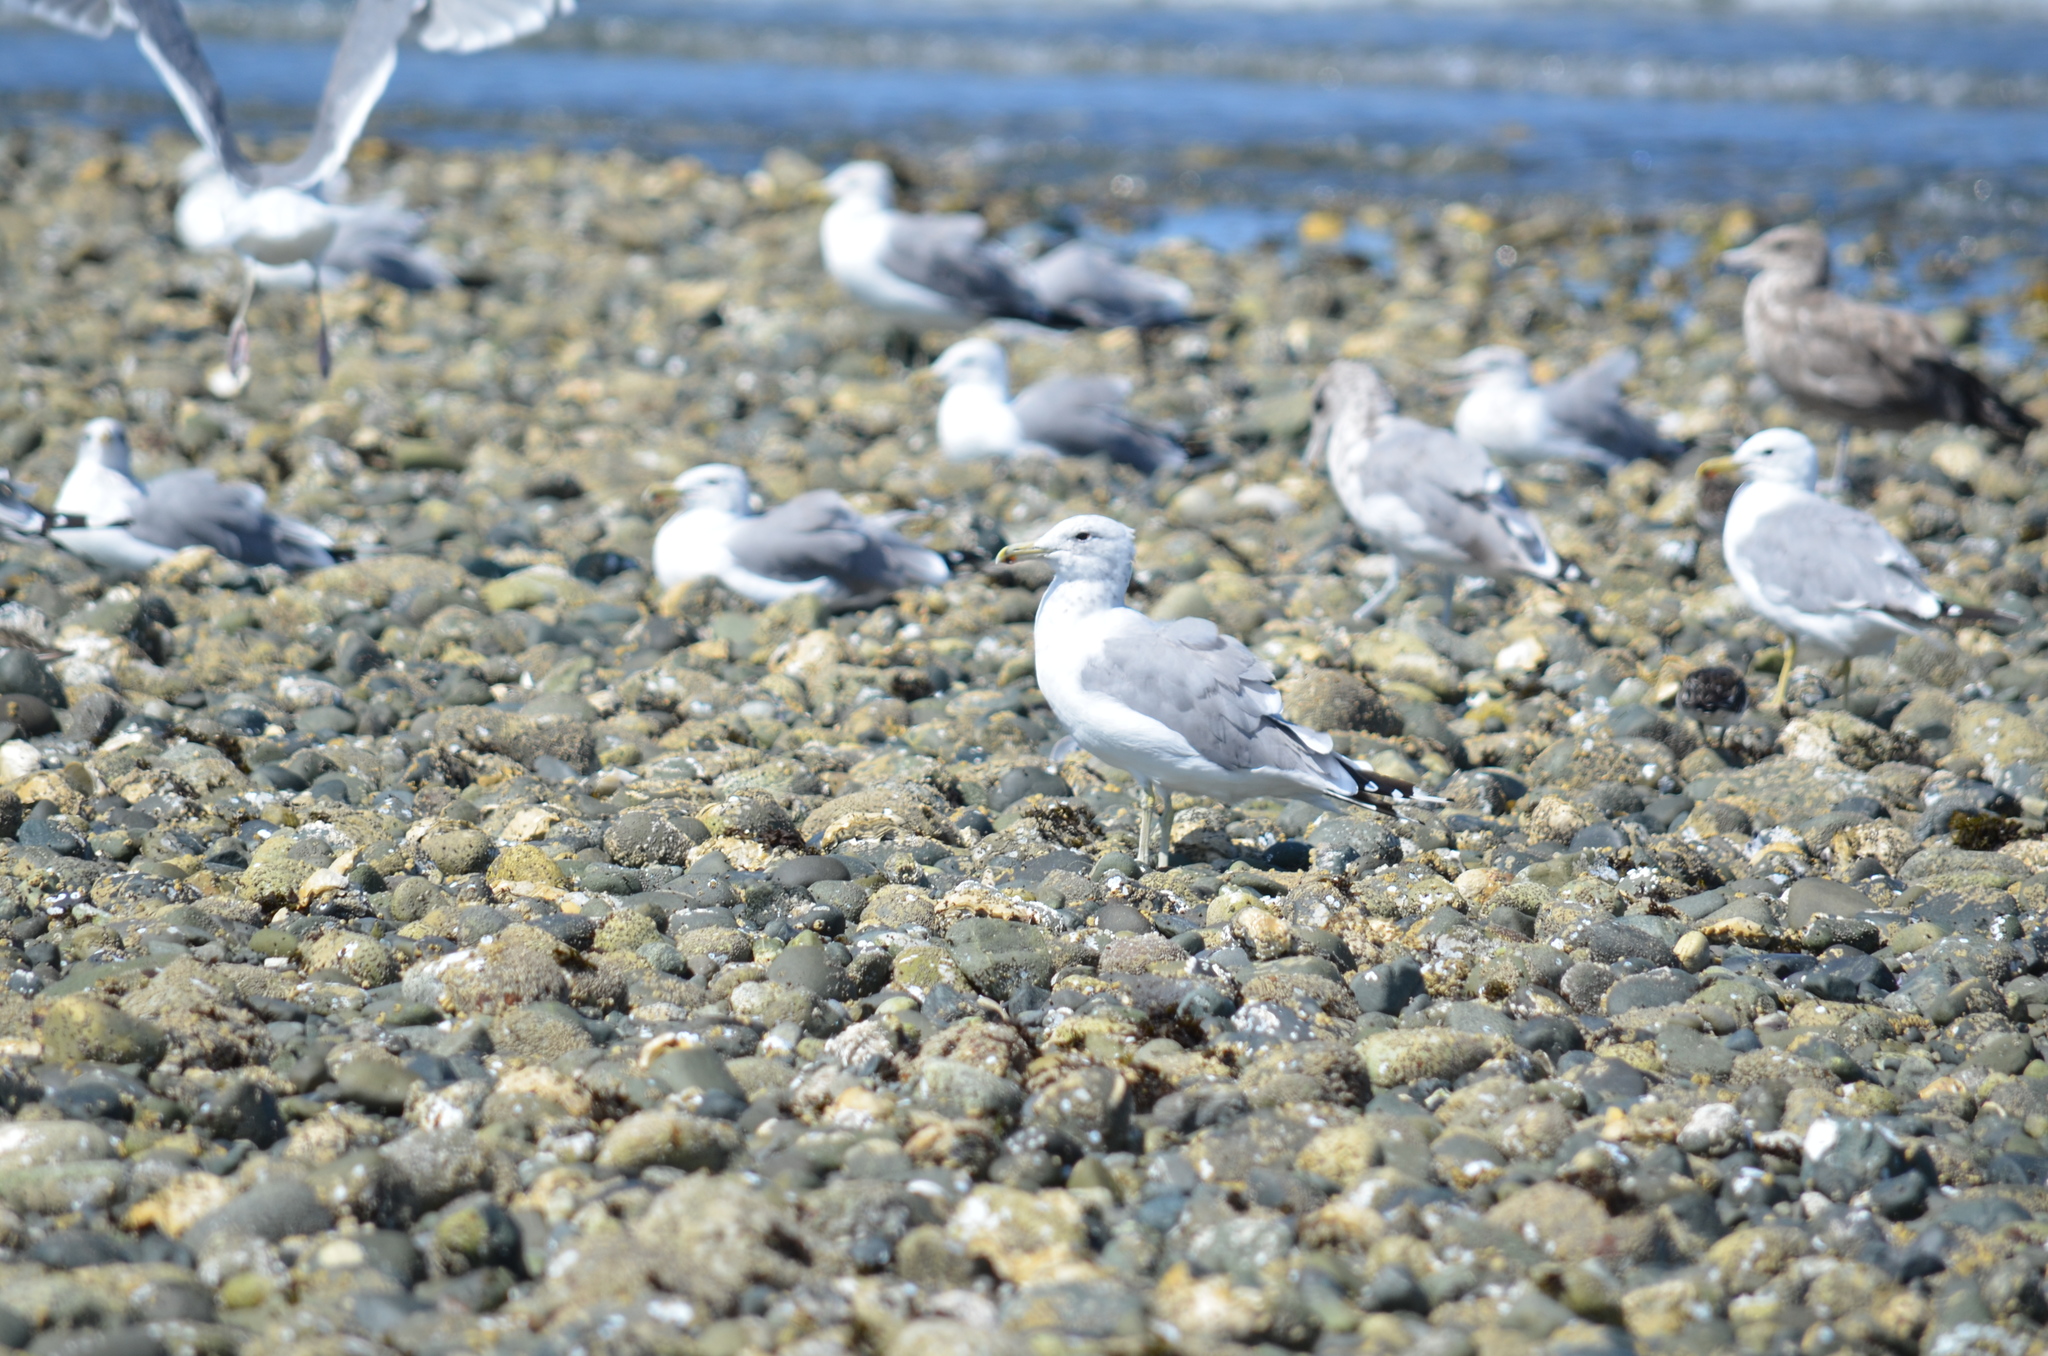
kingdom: Animalia
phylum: Chordata
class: Aves
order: Charadriiformes
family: Laridae
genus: Larus
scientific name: Larus californicus
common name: California gull
